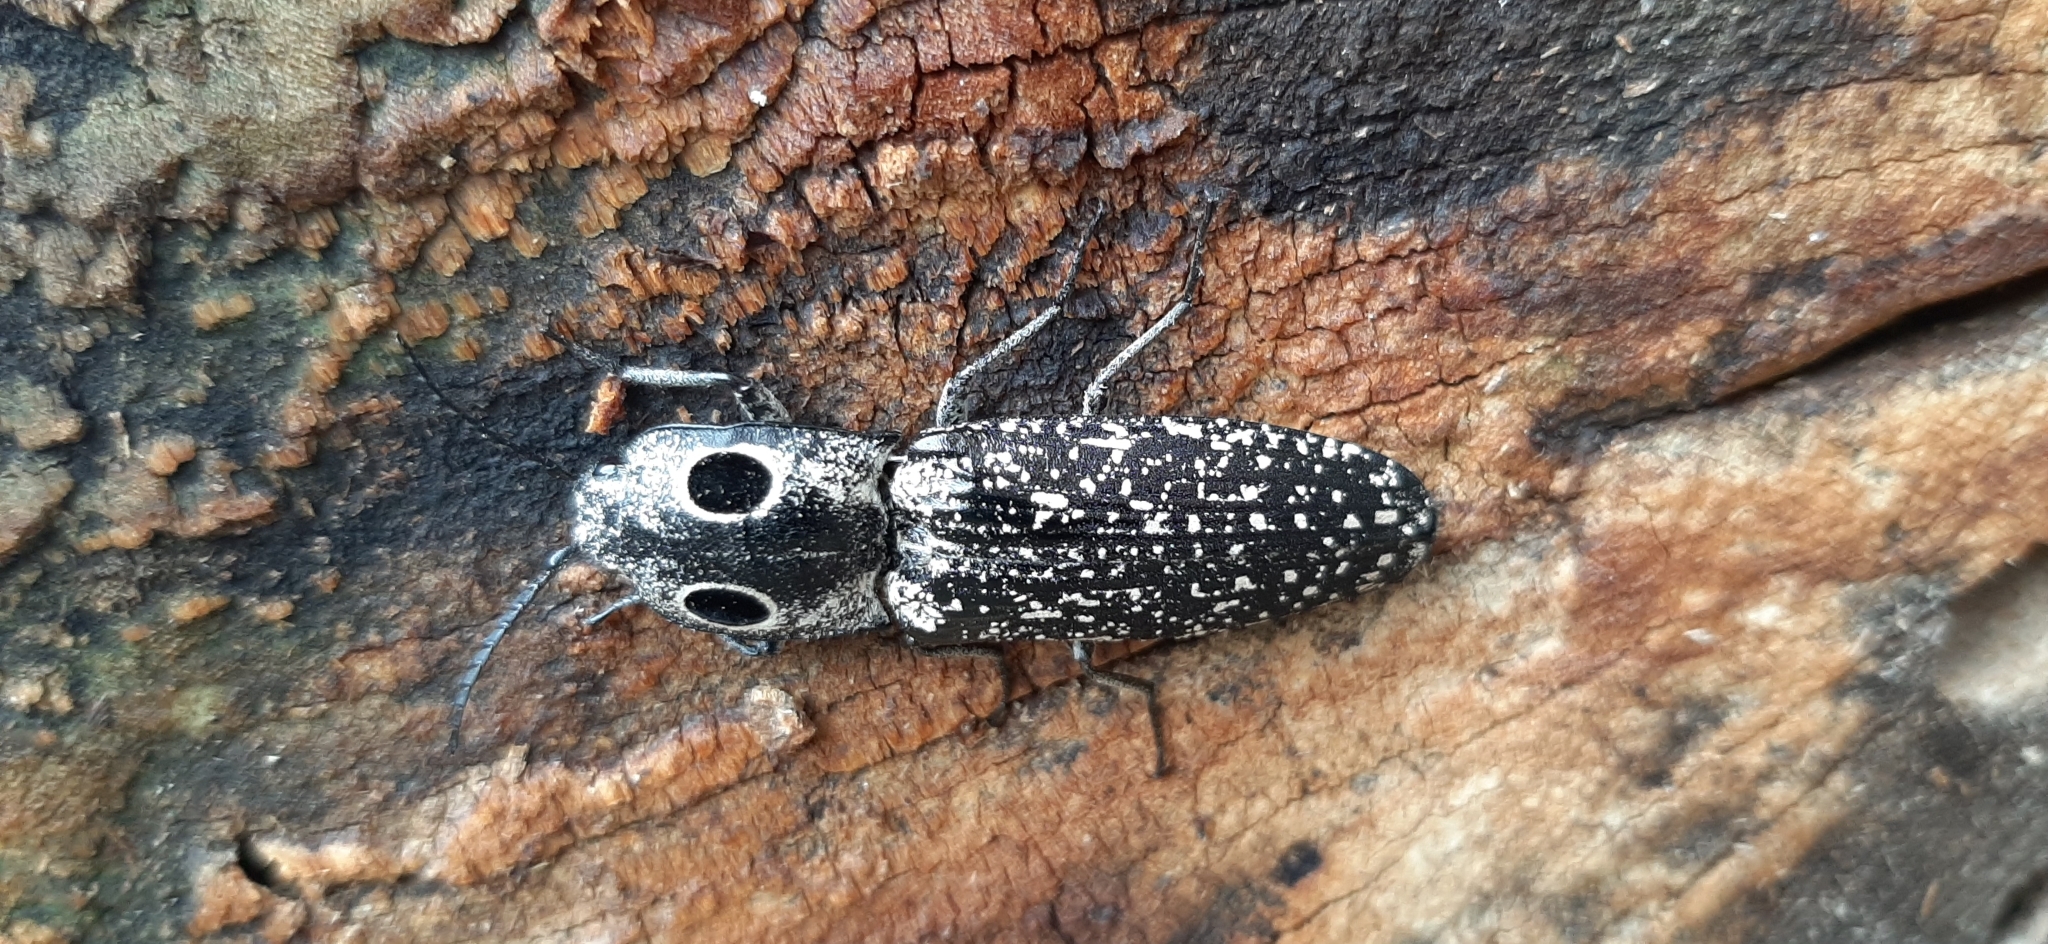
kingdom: Animalia
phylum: Arthropoda
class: Insecta
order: Coleoptera
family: Elateridae
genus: Alaus
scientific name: Alaus oculatus
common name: Eastern eyed click beetle
